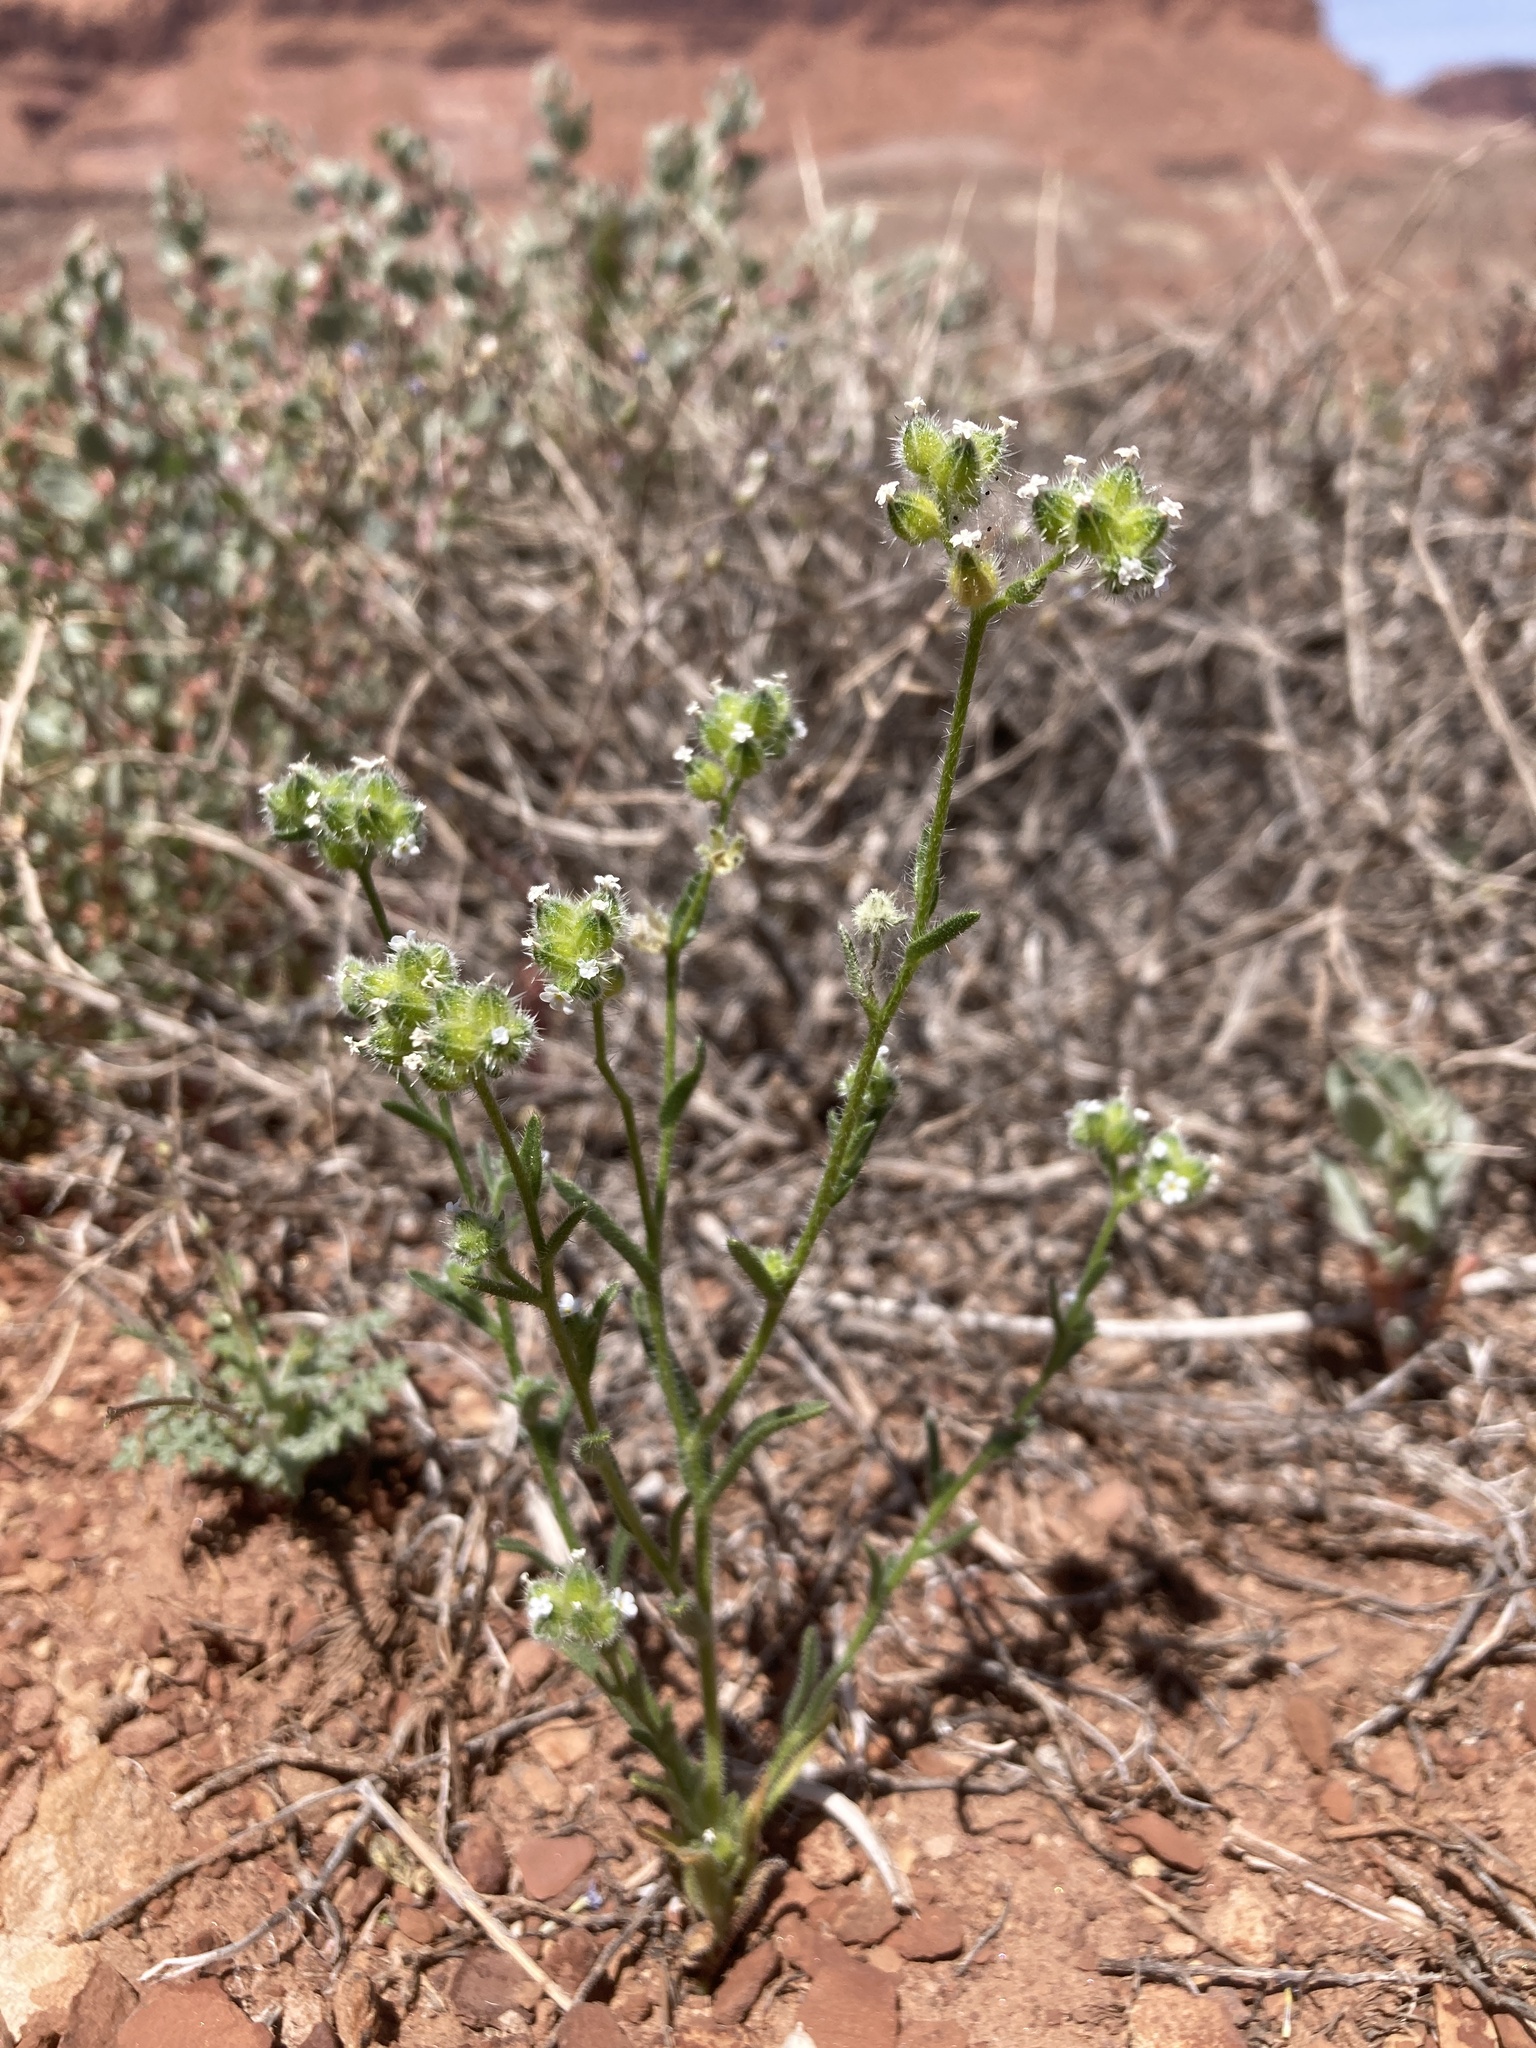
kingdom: Plantae
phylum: Tracheophyta
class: Magnoliopsida
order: Boraginales
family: Boraginaceae
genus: Cryptantha
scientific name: Cryptantha pterocarya
